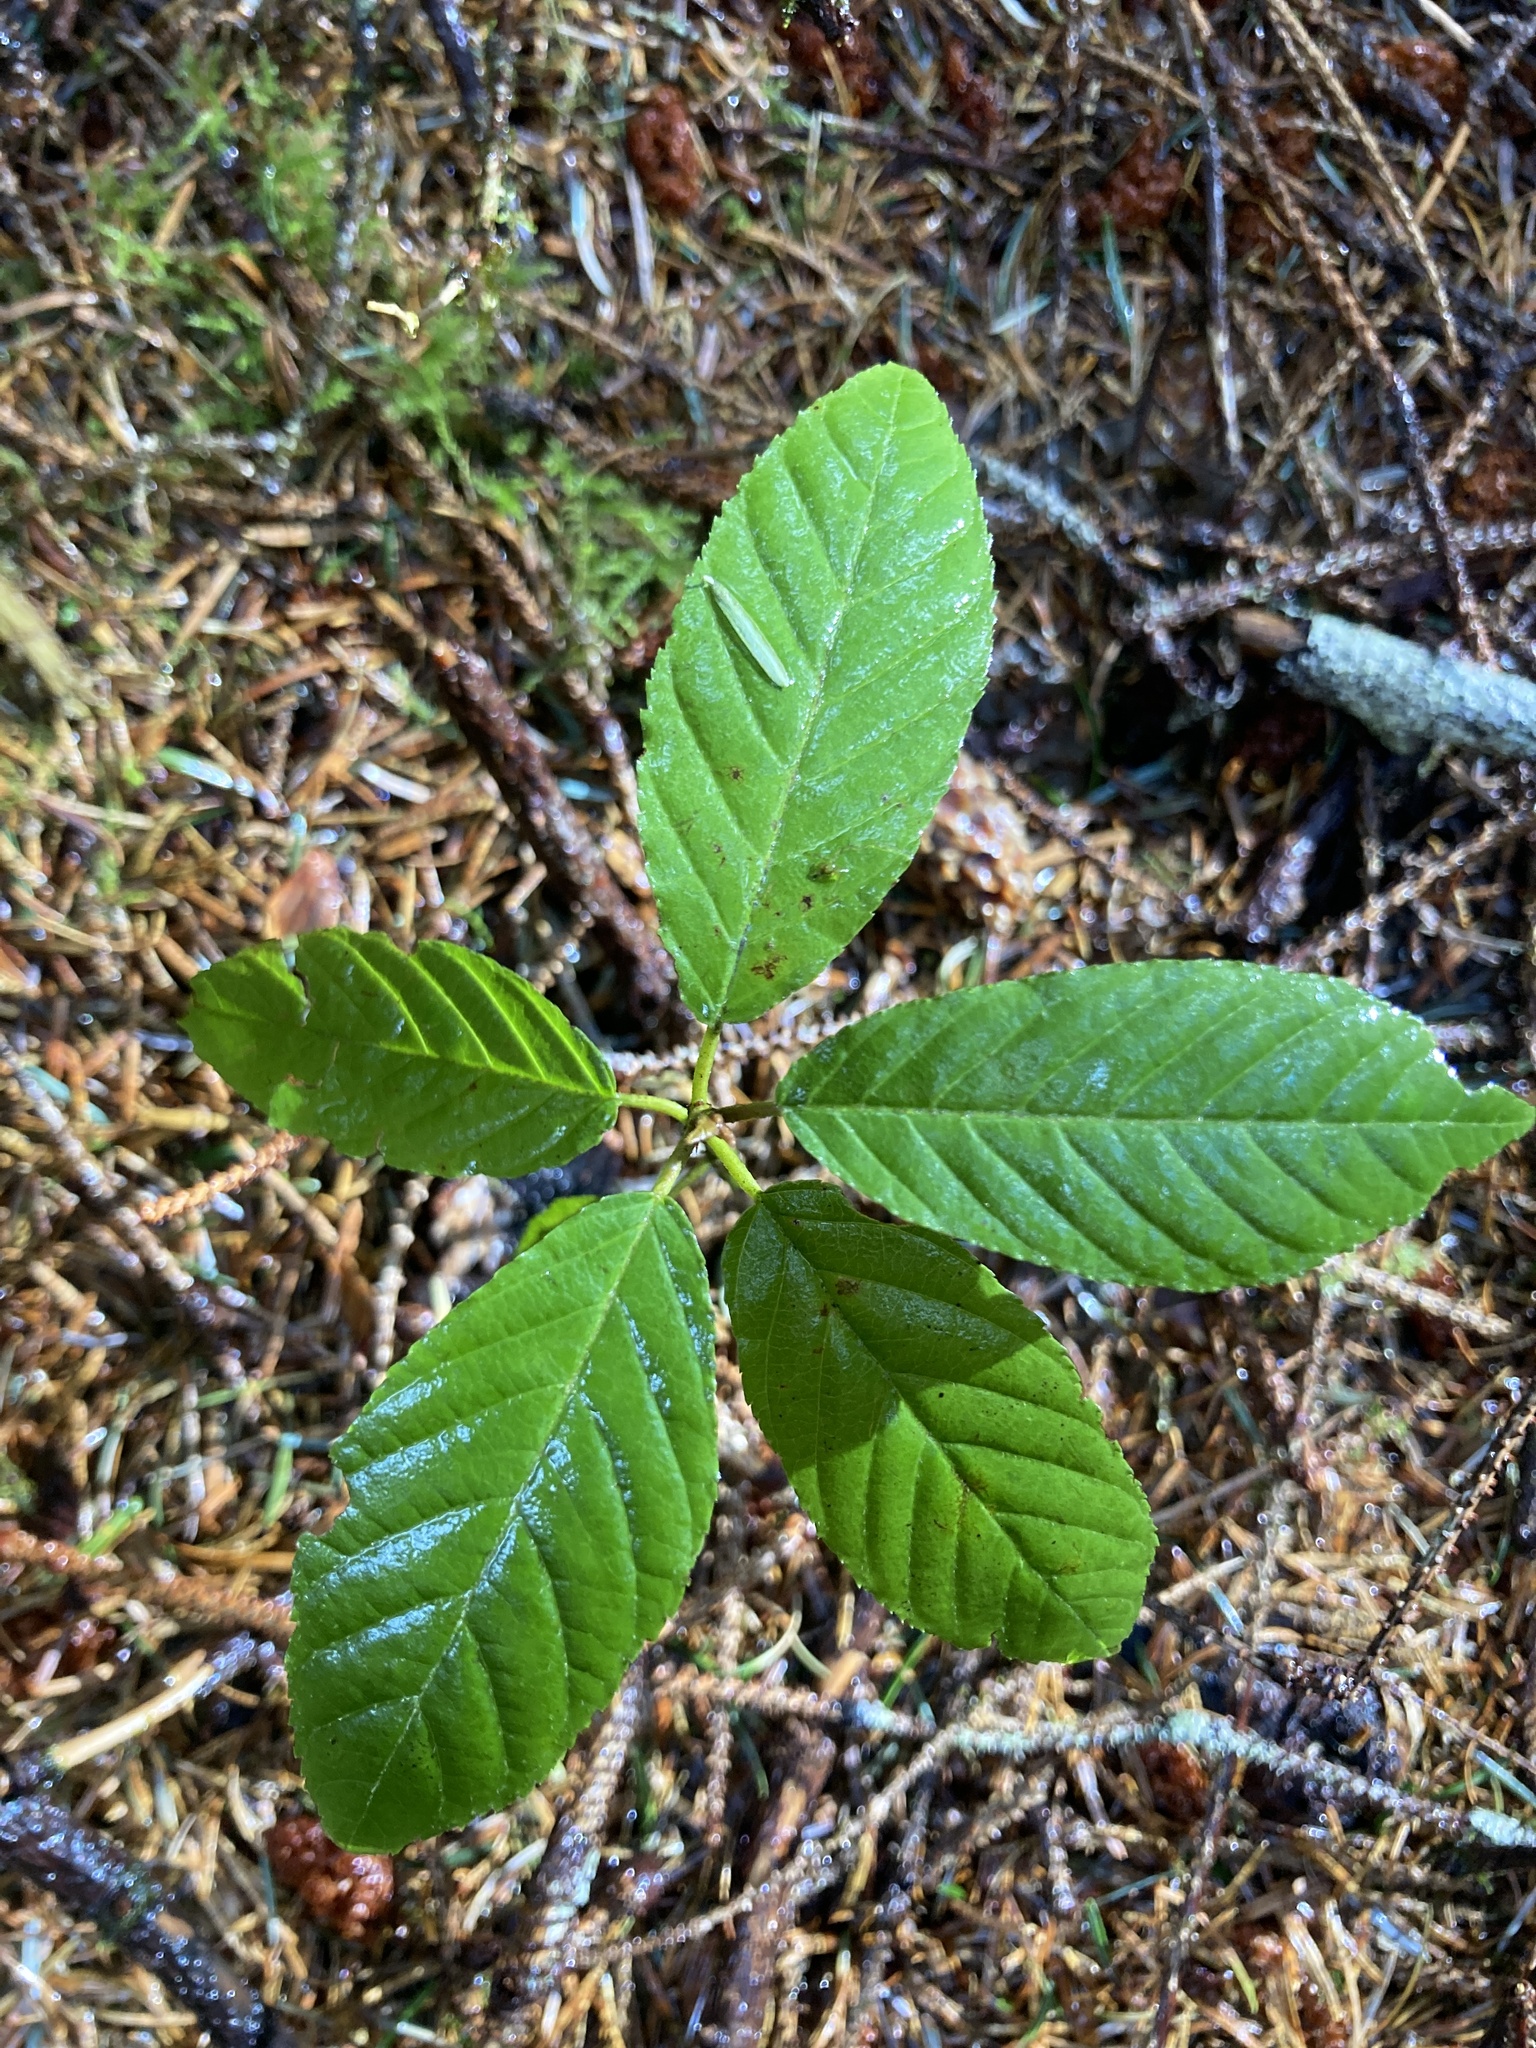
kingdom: Plantae
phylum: Tracheophyta
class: Magnoliopsida
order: Rosales
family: Rhamnaceae
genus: Frangula
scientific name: Frangula purshiana
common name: Cascara buckthorn
